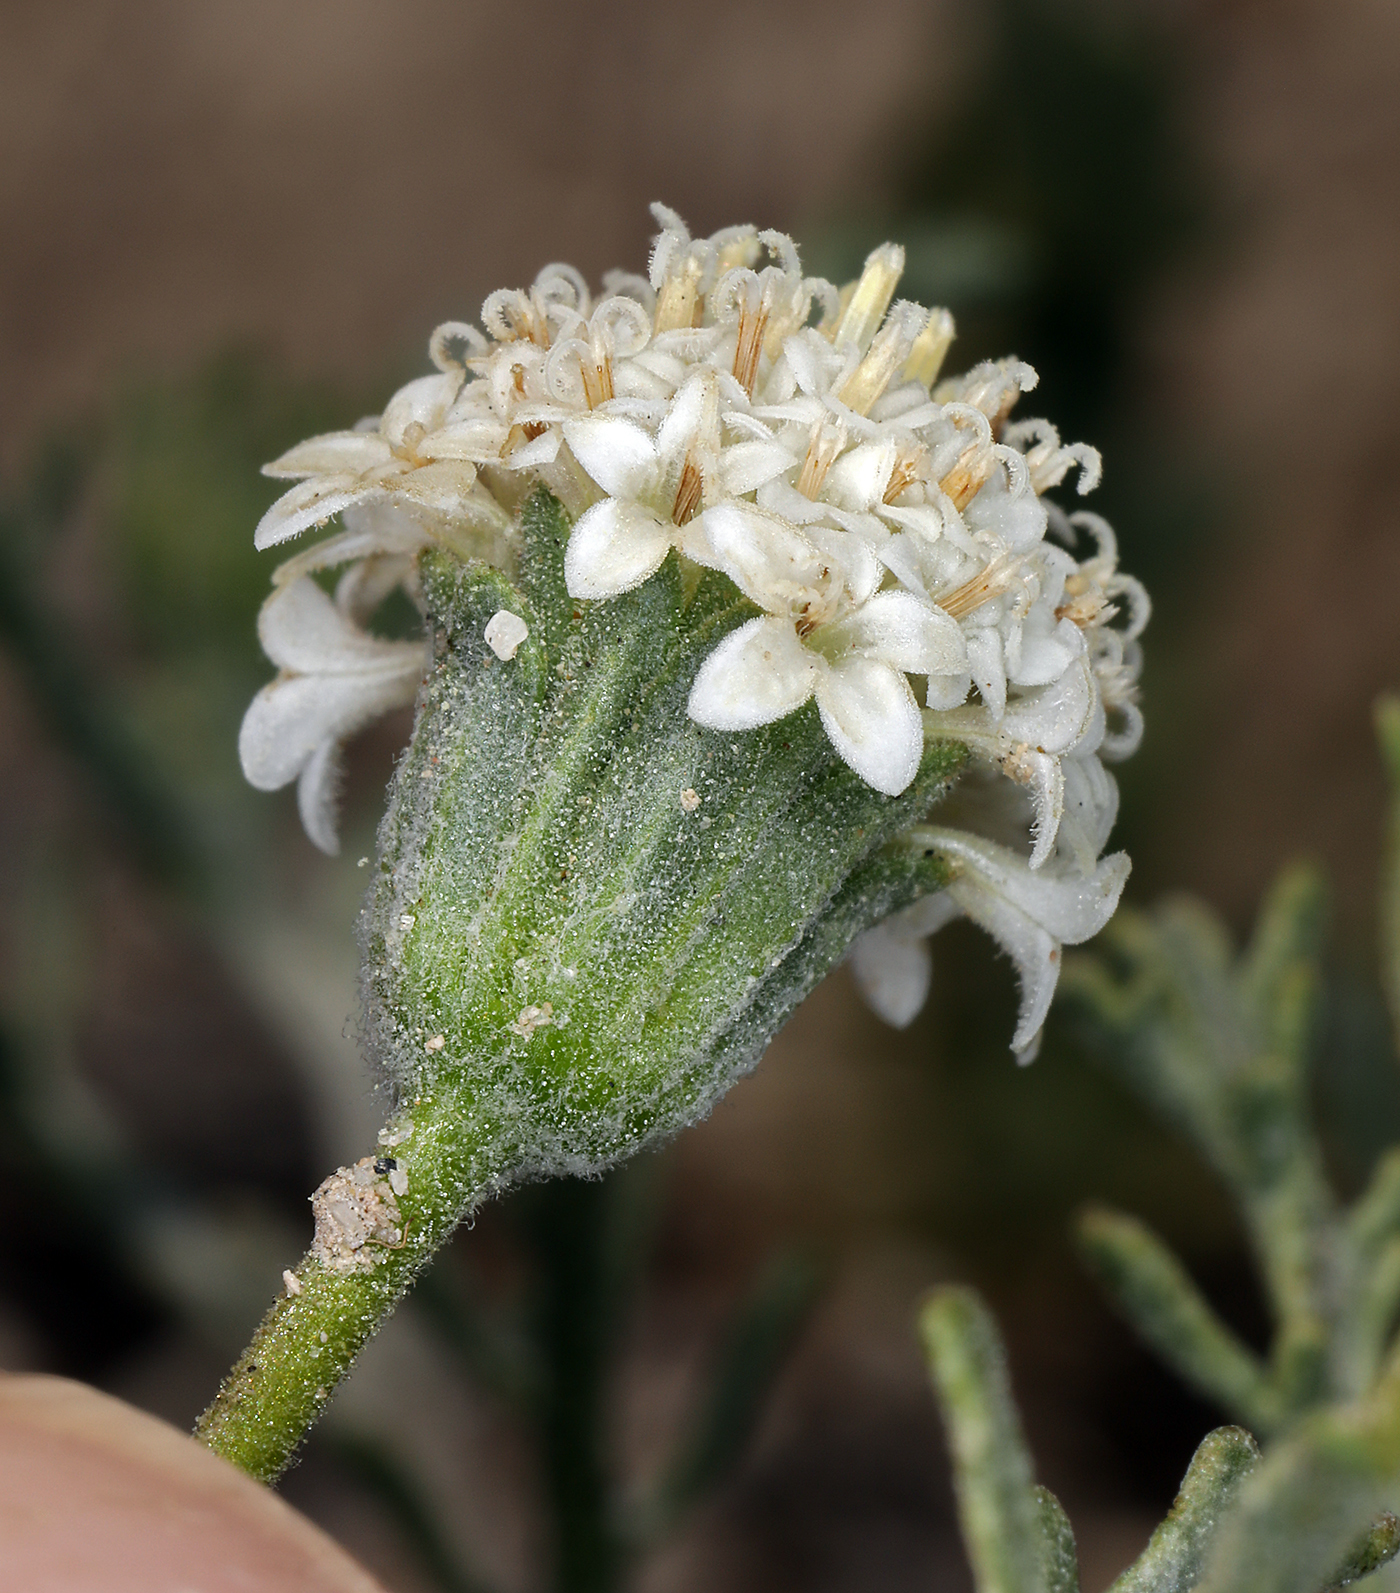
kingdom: Plantae
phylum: Tracheophyta
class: Magnoliopsida
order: Asterales
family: Asteraceae
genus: Chaenactis
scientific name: Chaenactis stevioides
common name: Desert pincushion
